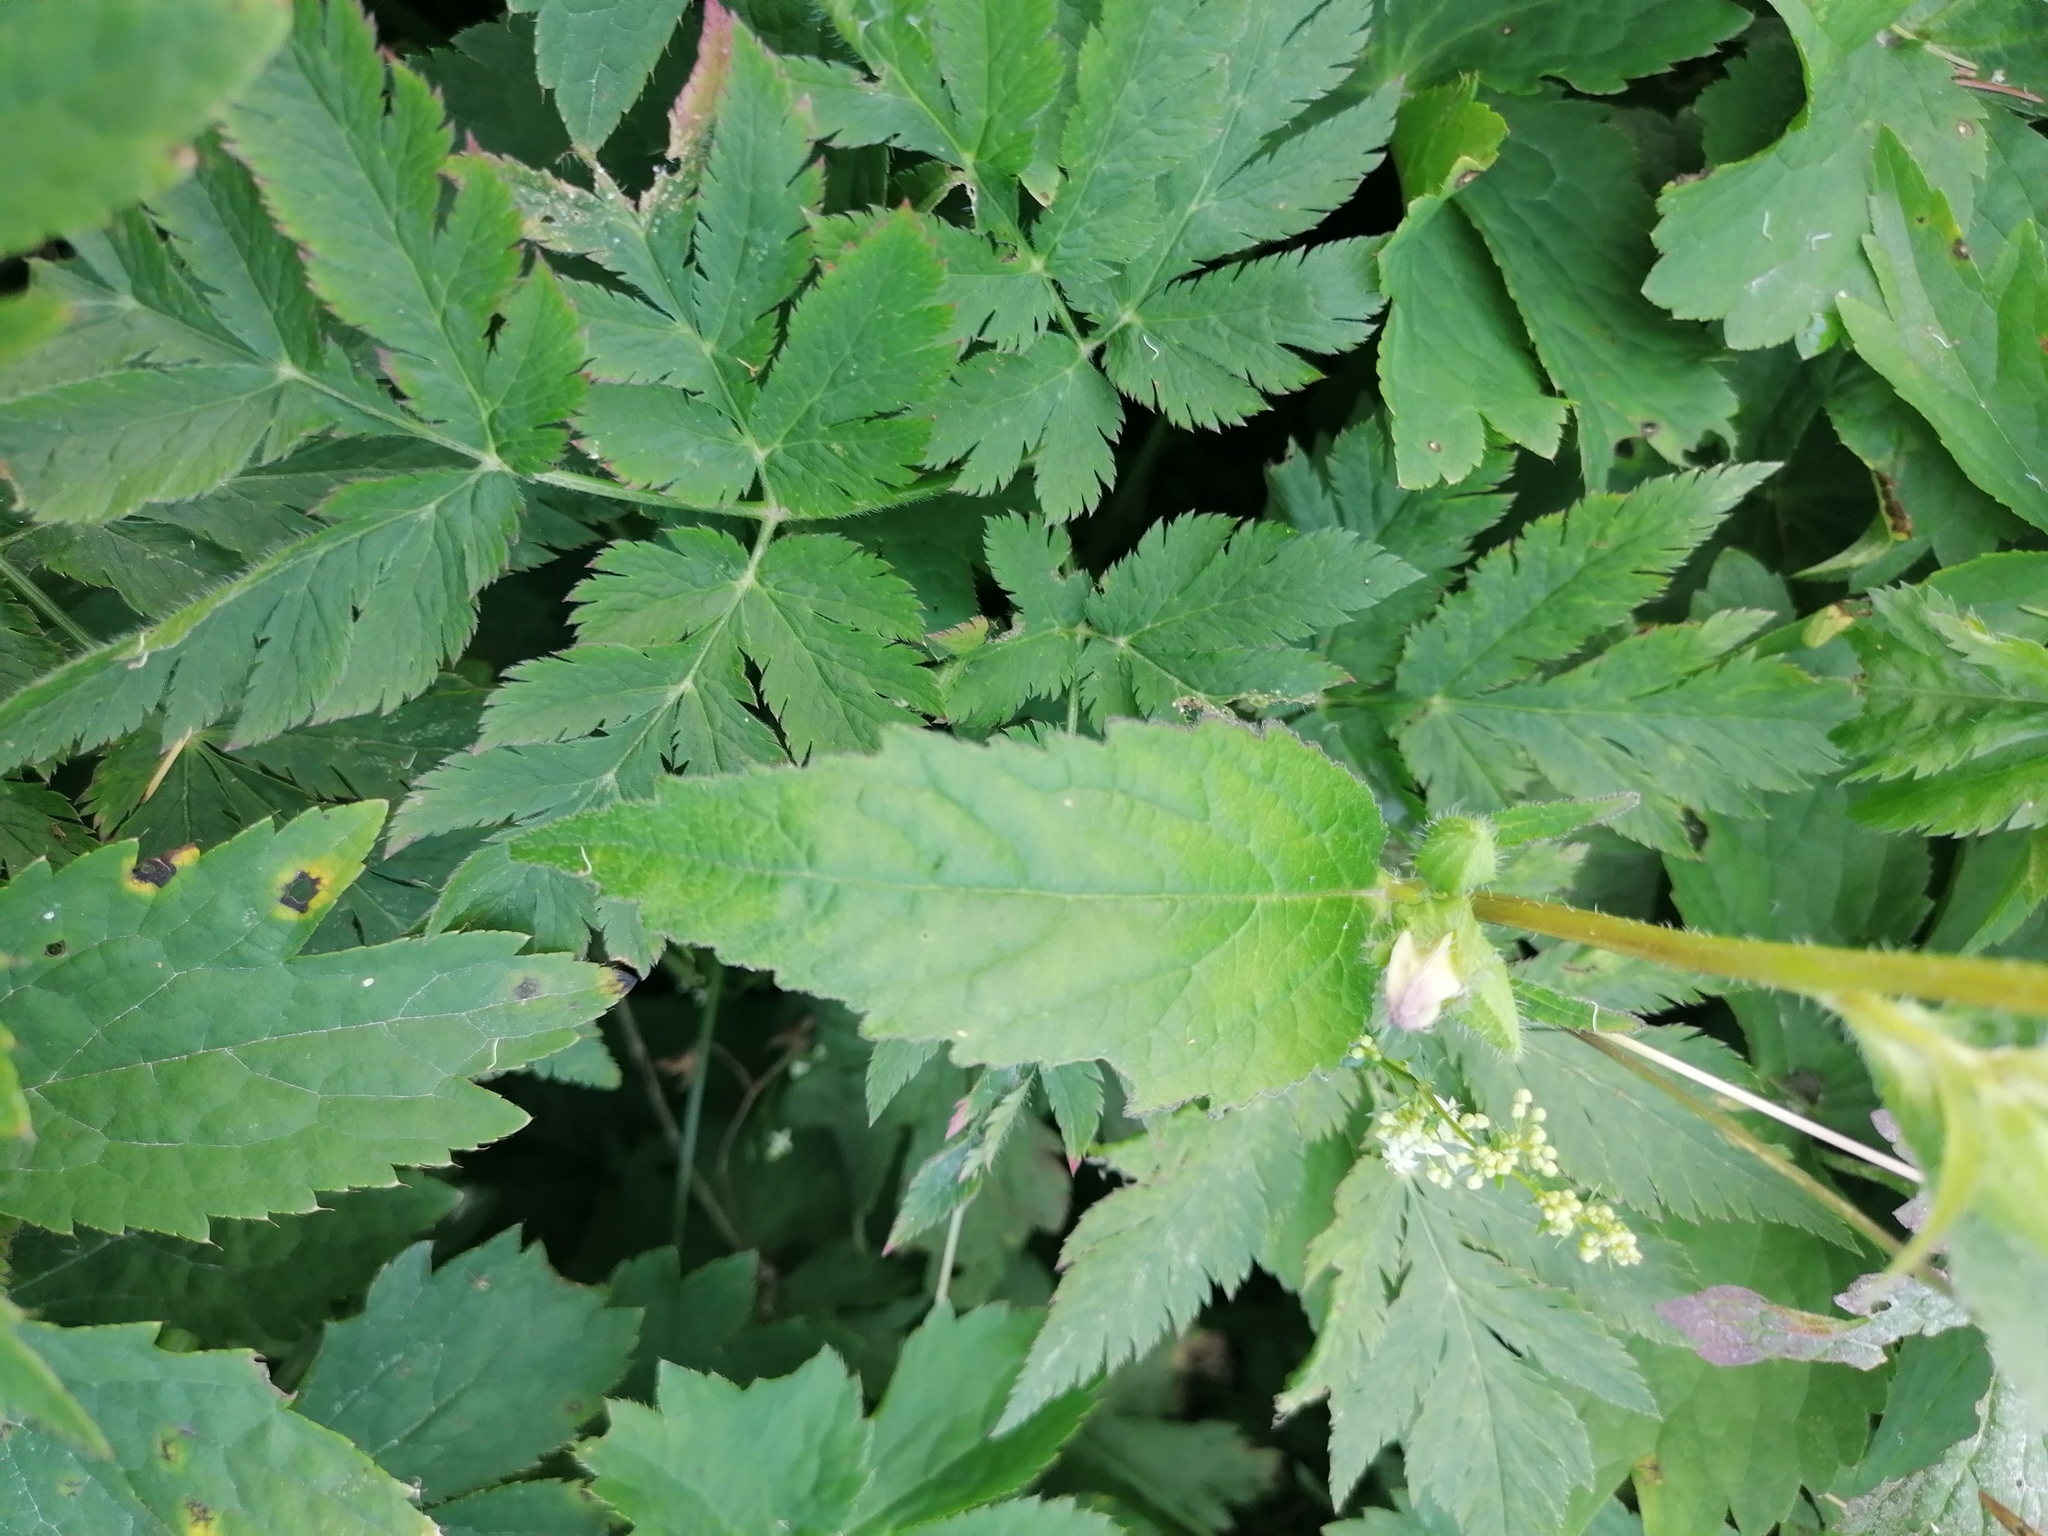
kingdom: Plantae
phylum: Tracheophyta
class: Magnoliopsida
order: Asterales
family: Campanulaceae
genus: Campanula
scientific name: Campanula trachelium
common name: Nettle-leaved bellflower
